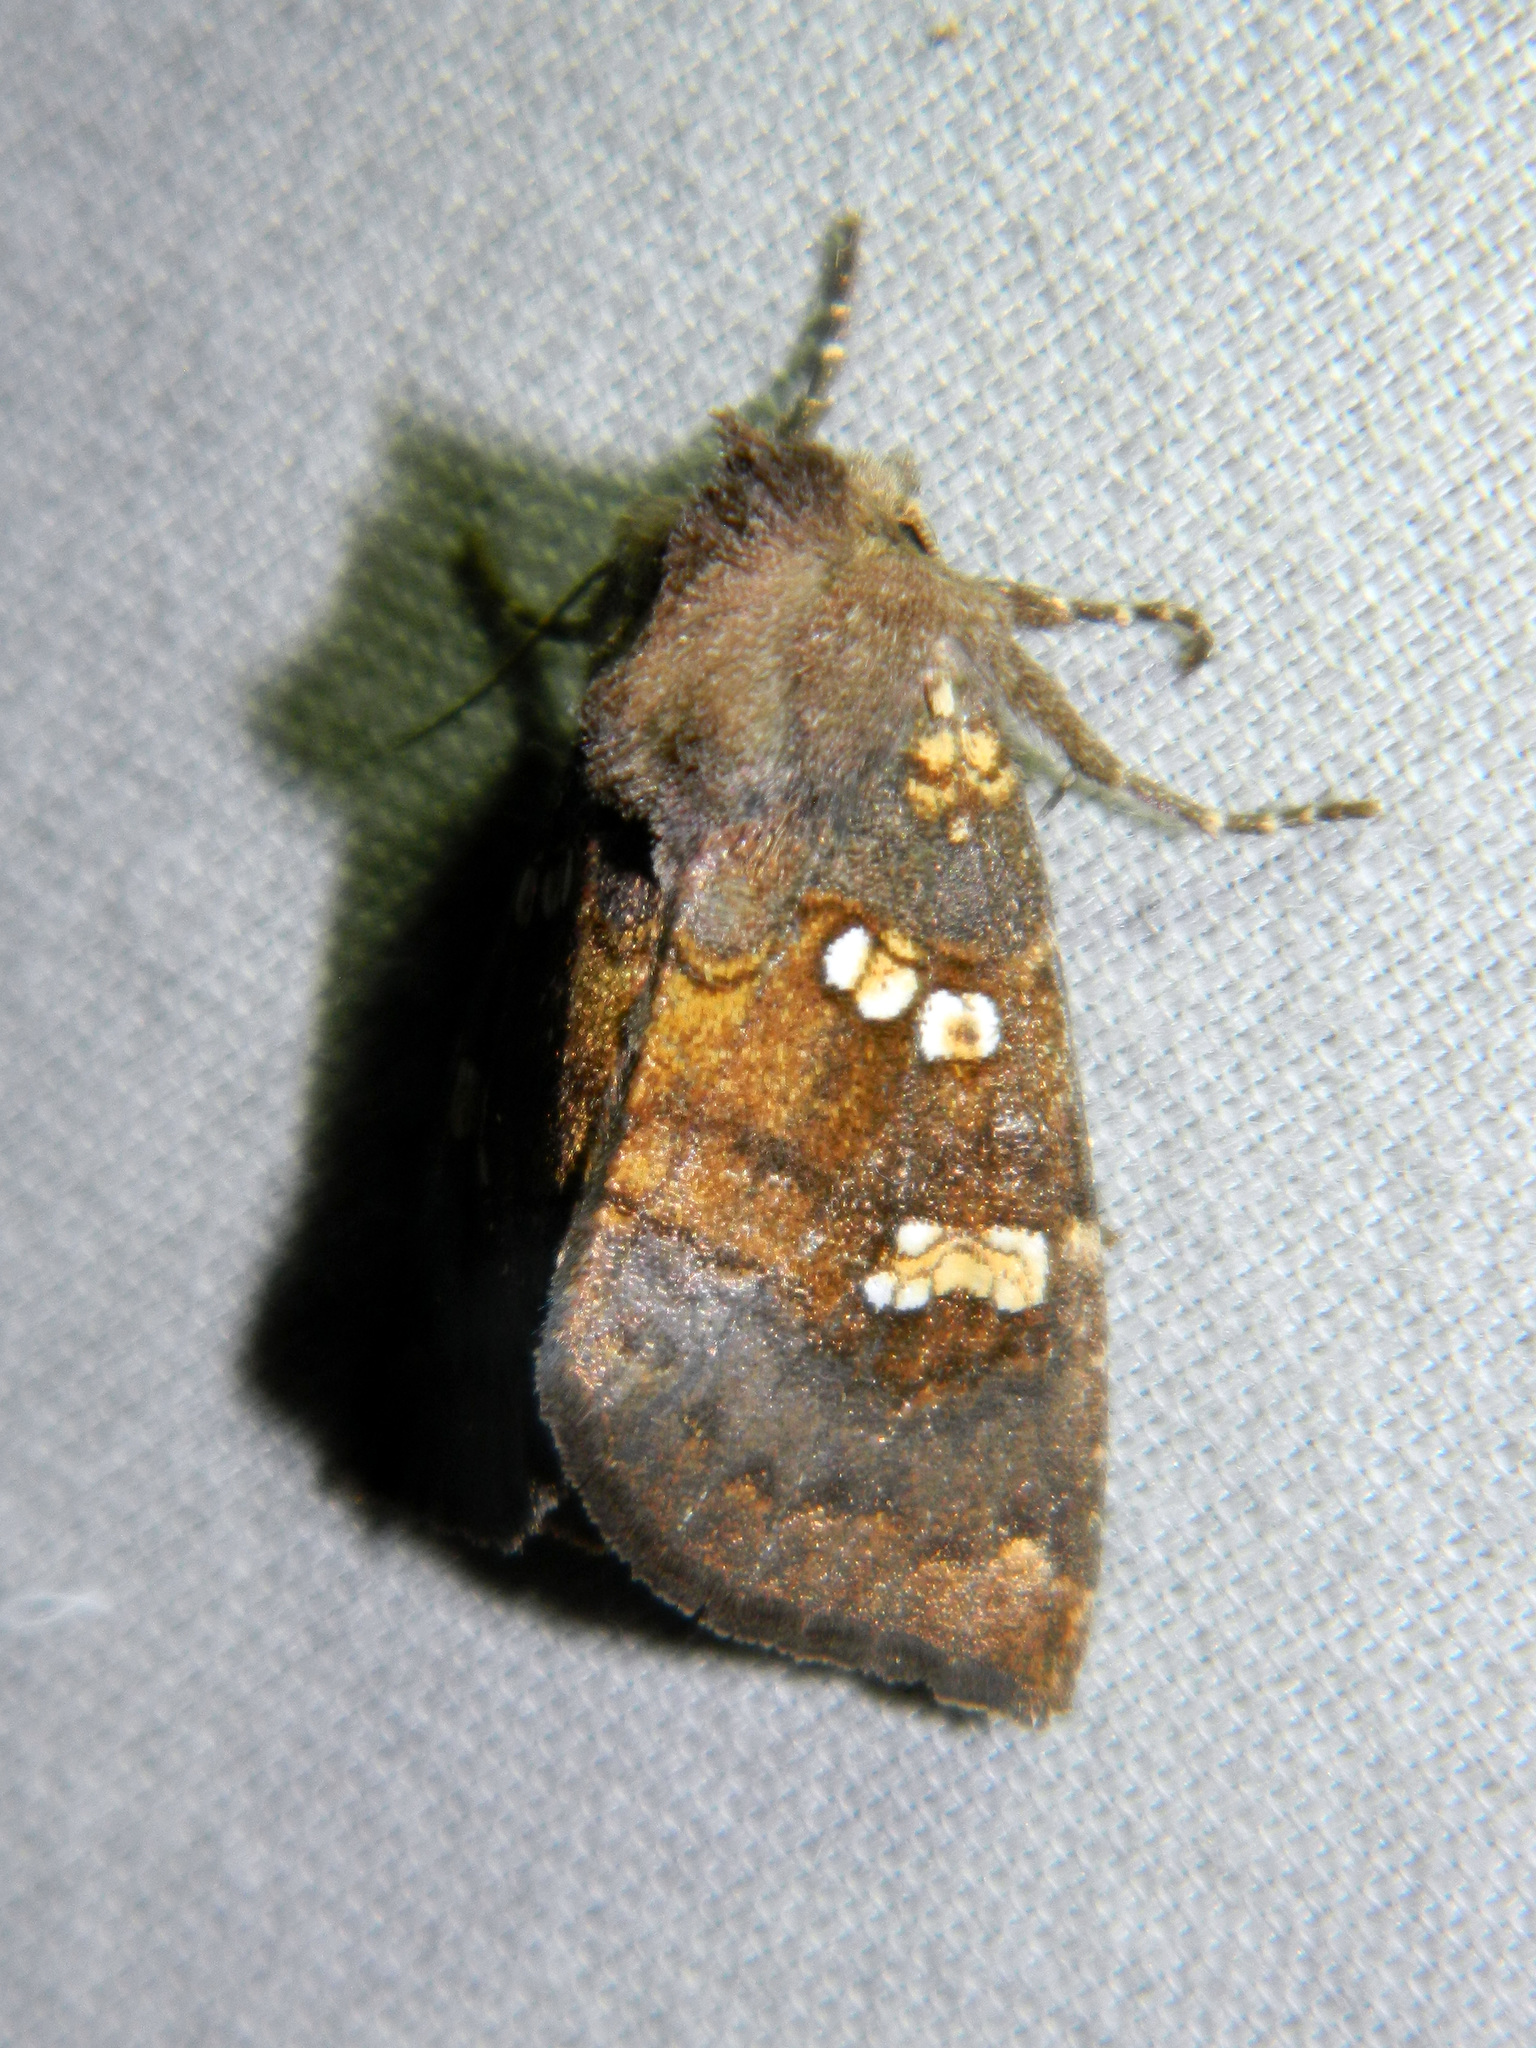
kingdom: Animalia
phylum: Arthropoda
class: Insecta
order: Lepidoptera
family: Noctuidae
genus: Papaipema
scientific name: Papaipema unimoda
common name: Meadow rue borer moth
